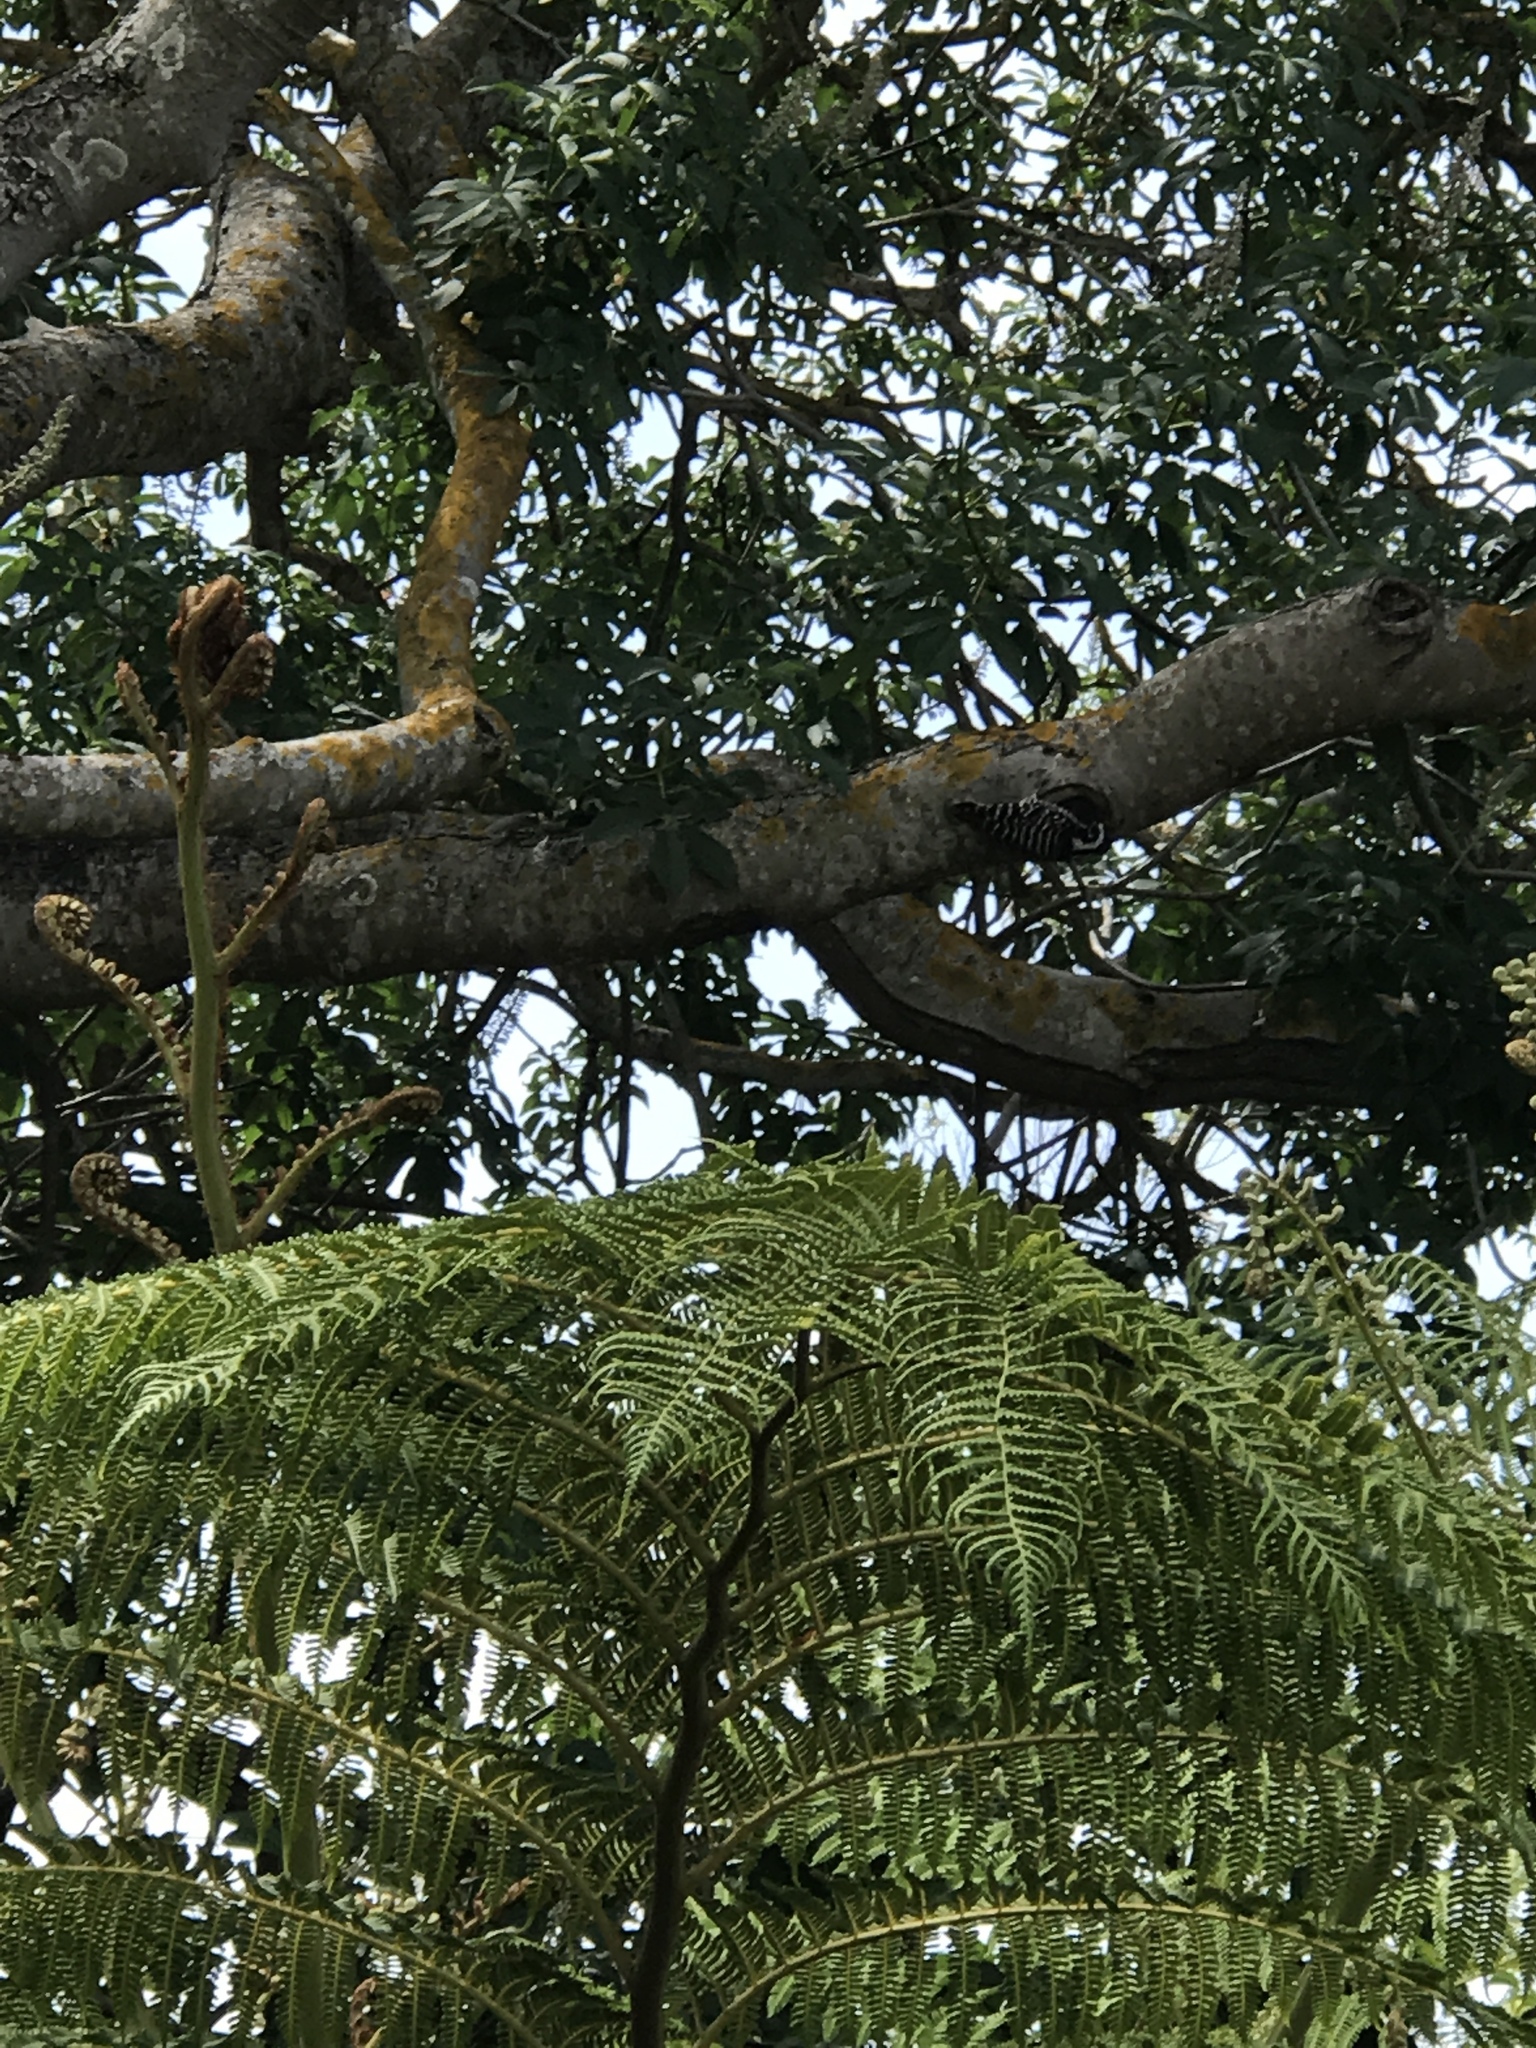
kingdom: Animalia
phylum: Chordata
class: Aves
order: Piciformes
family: Picidae
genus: Dryobates
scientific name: Dryobates nuttallii
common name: Nuttall's woodpecker
